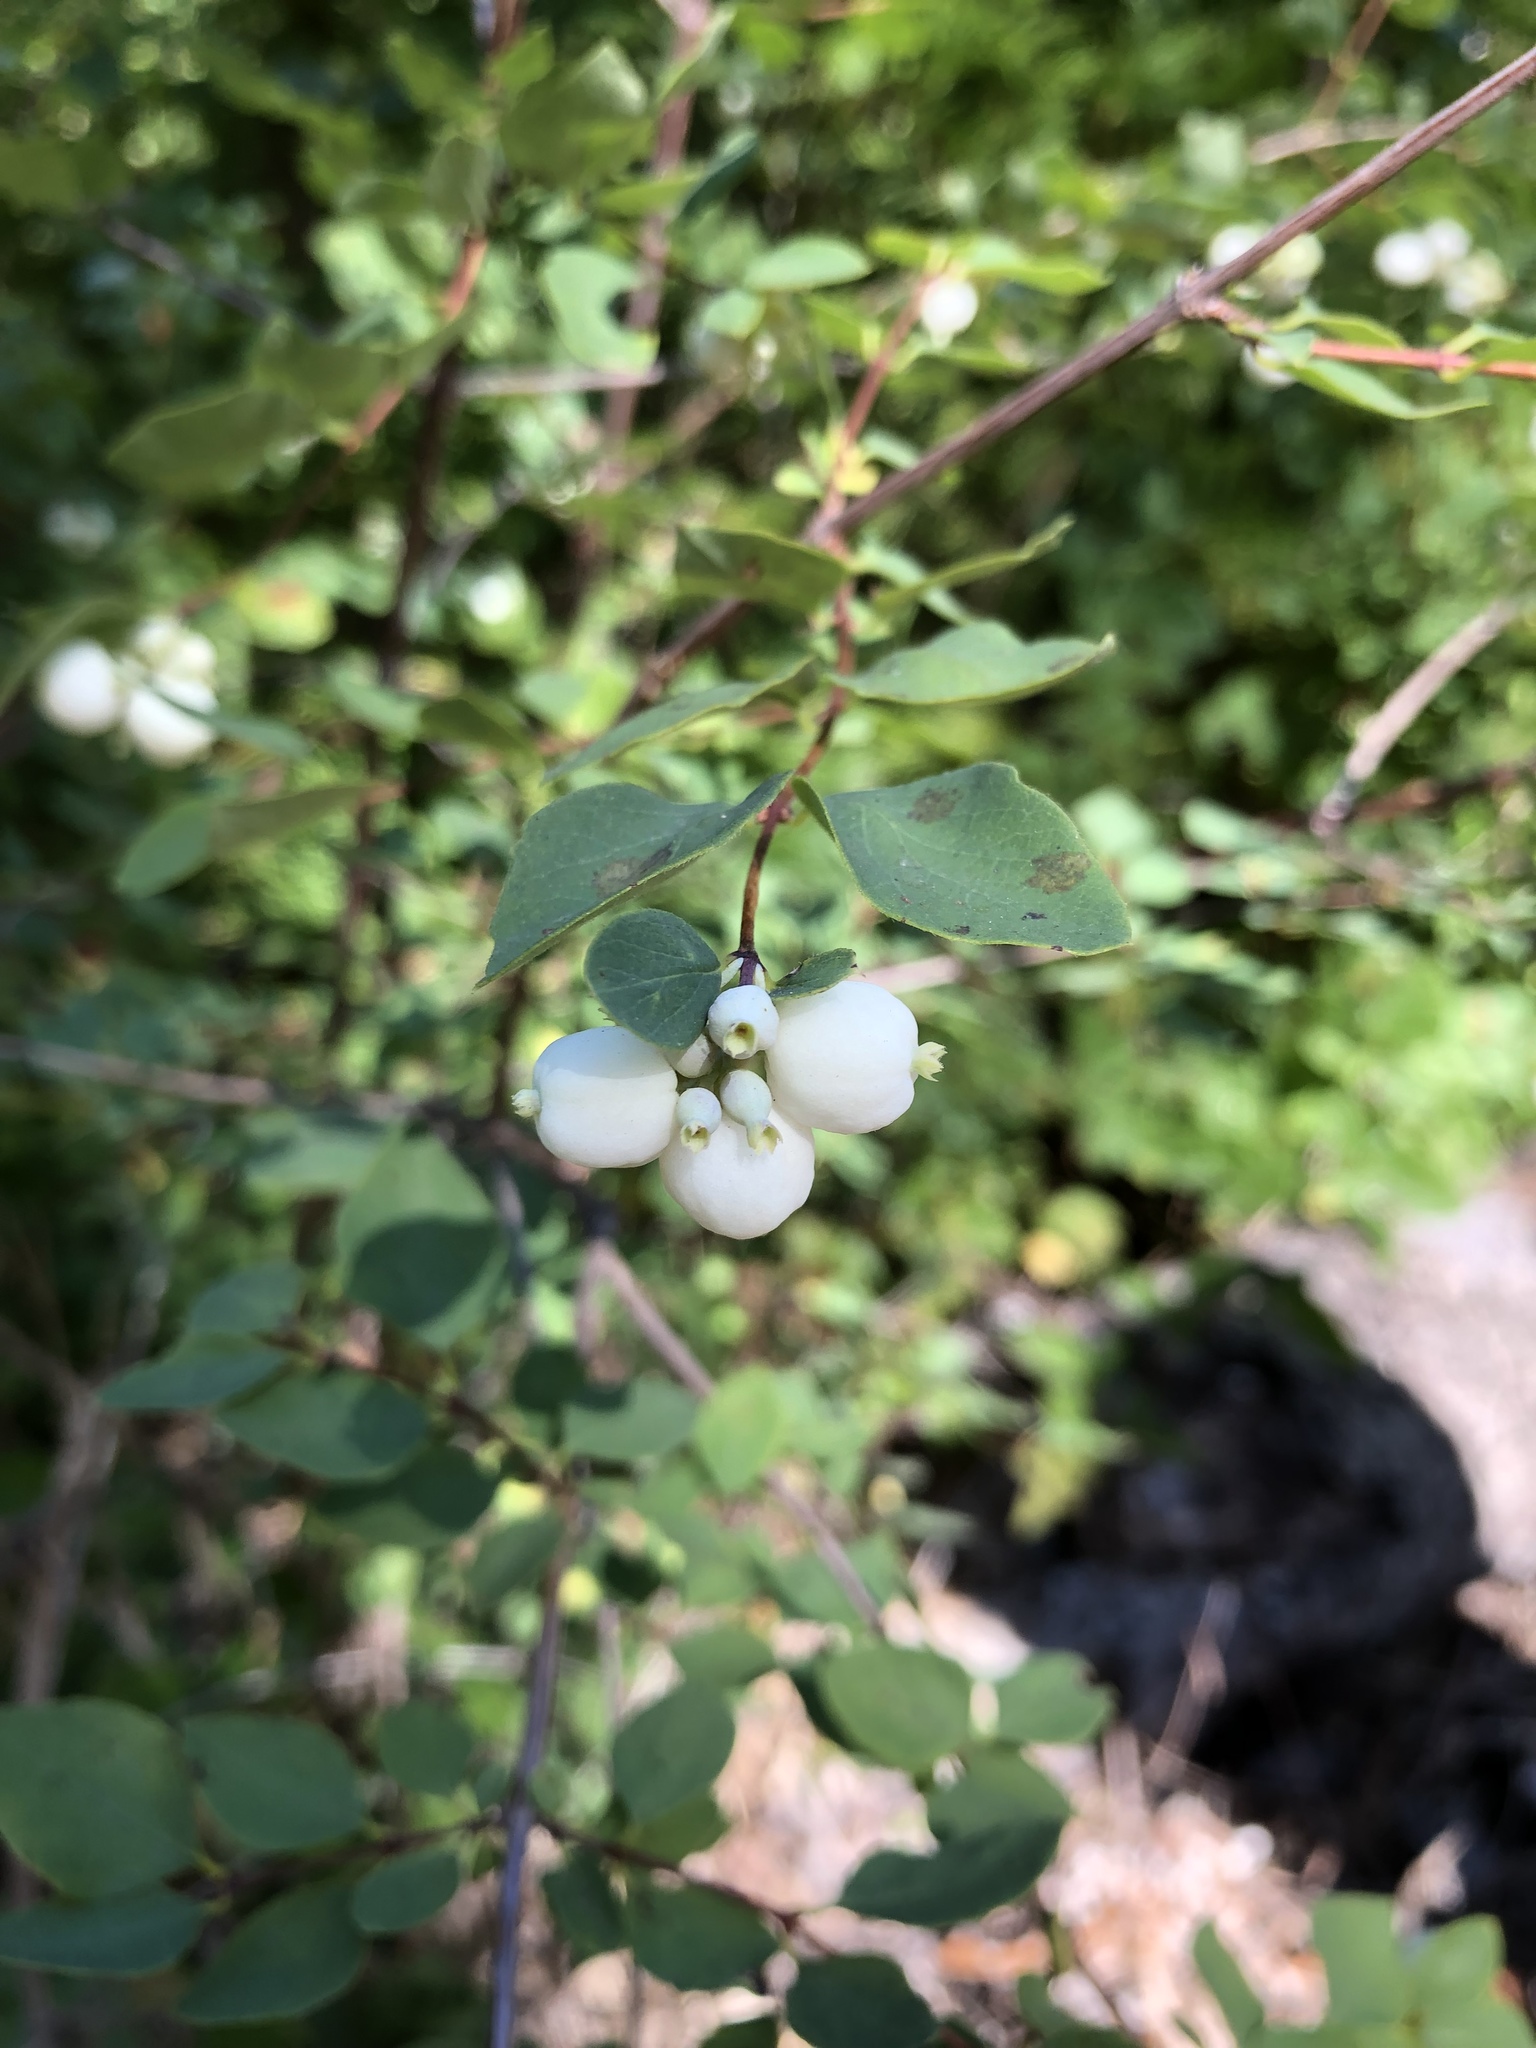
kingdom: Plantae
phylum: Tracheophyta
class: Magnoliopsida
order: Dipsacales
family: Caprifoliaceae
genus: Symphoricarpos
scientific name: Symphoricarpos albus
